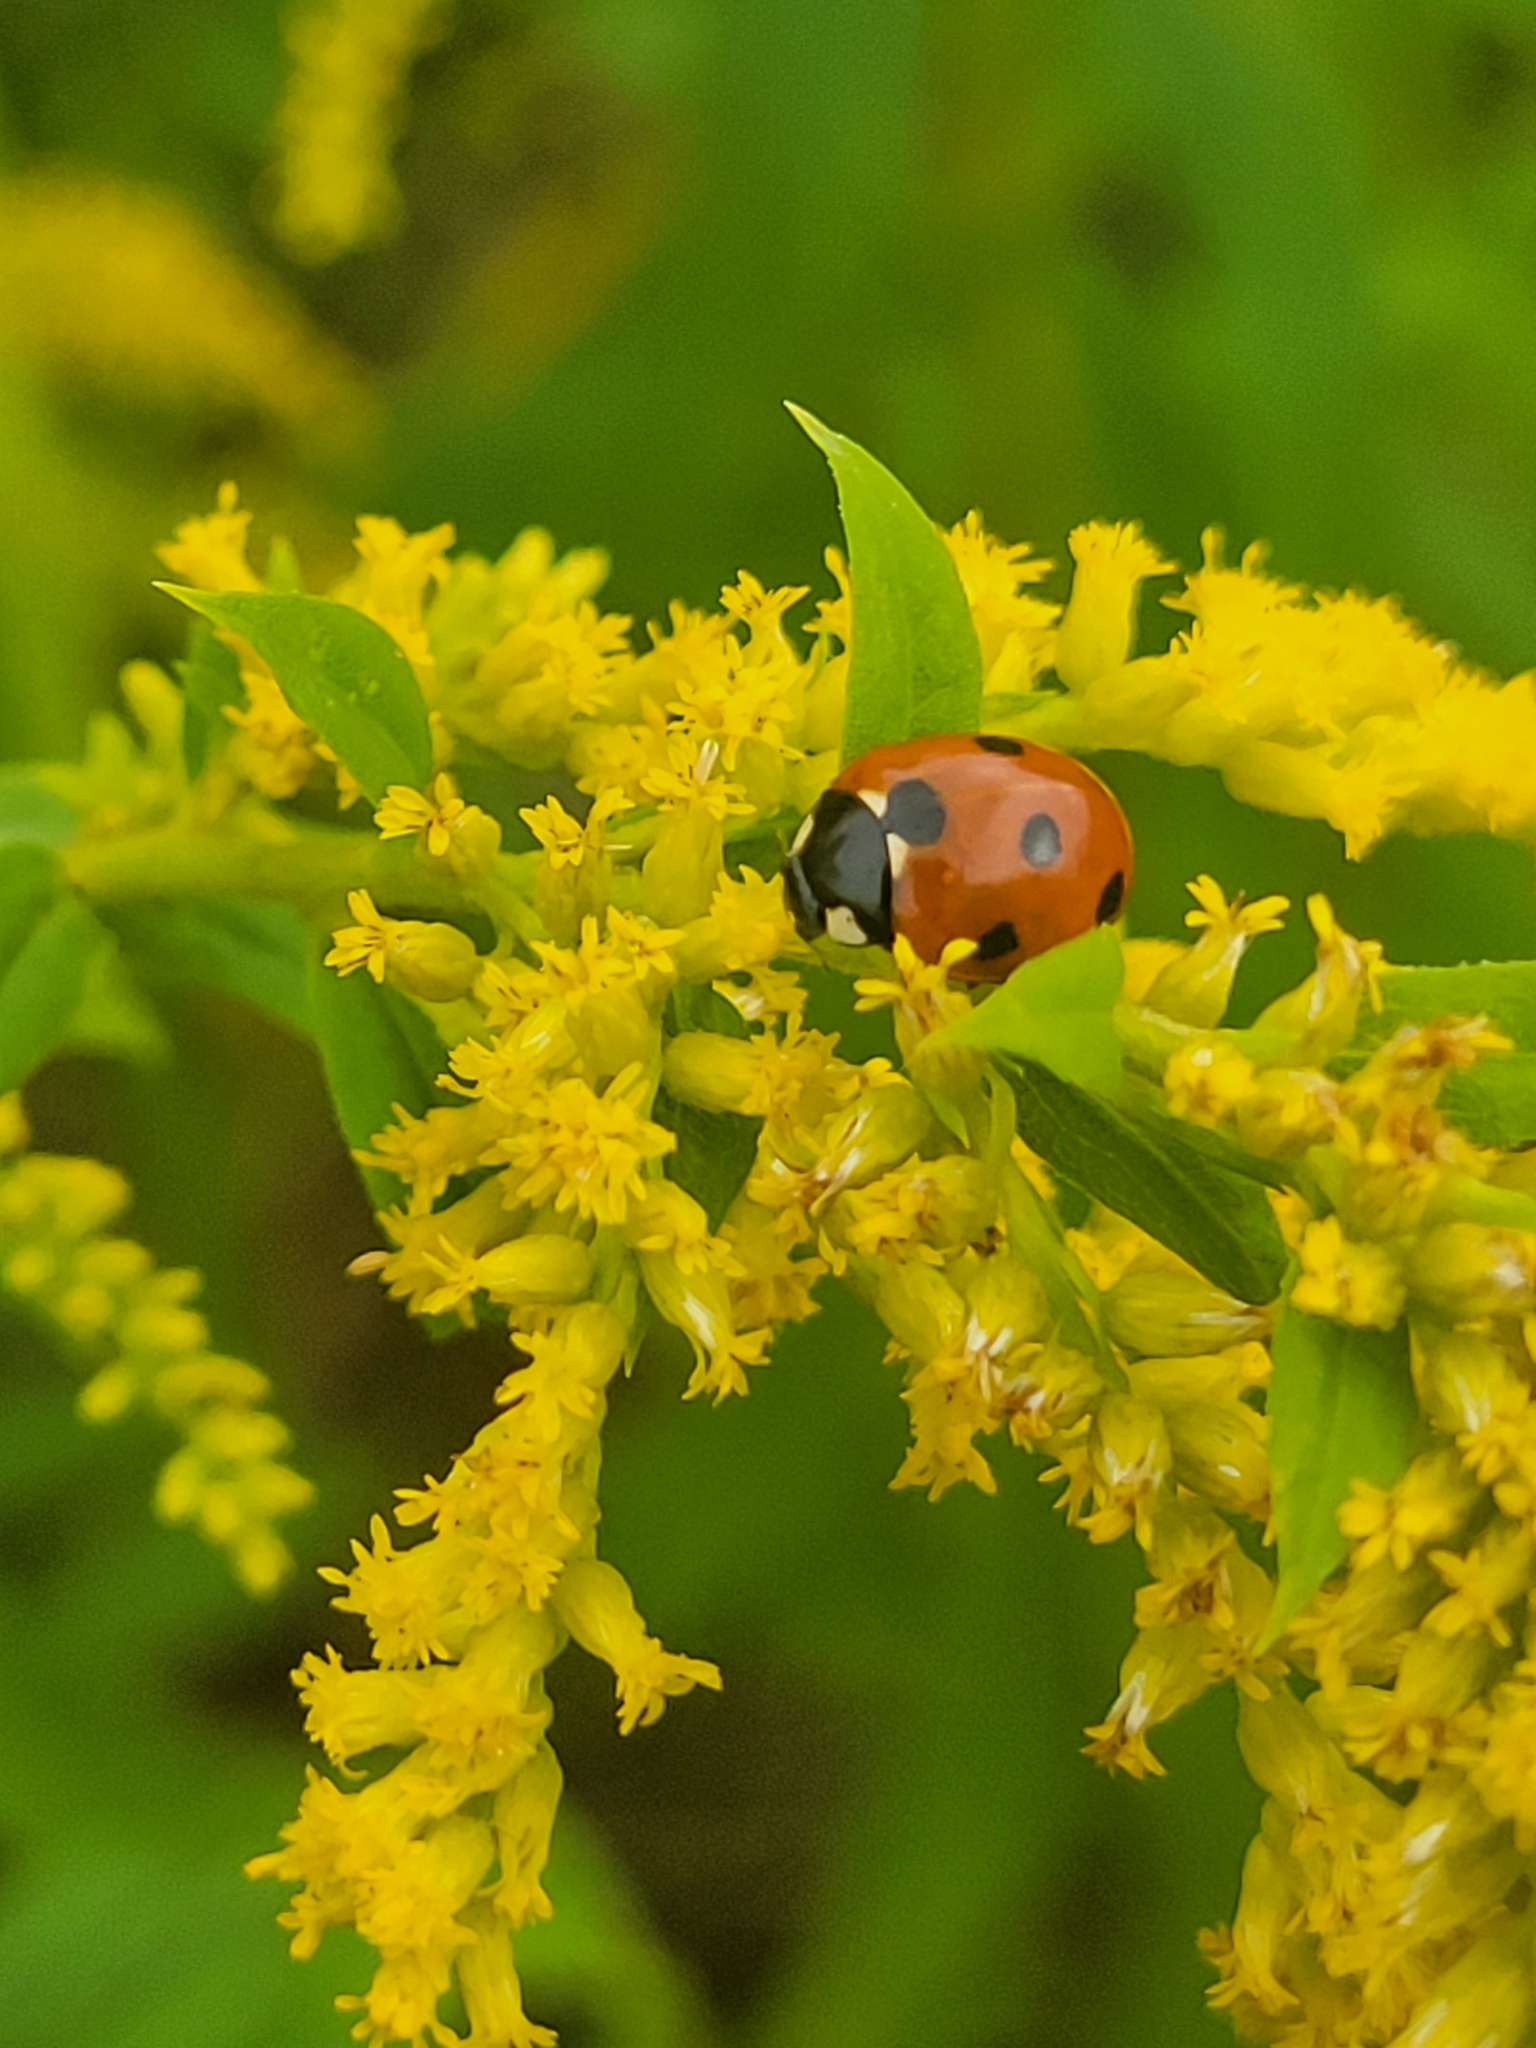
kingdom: Animalia
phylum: Arthropoda
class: Insecta
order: Coleoptera
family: Coccinellidae
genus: Coccinella
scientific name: Coccinella septempunctata
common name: Sevenspotted lady beetle
